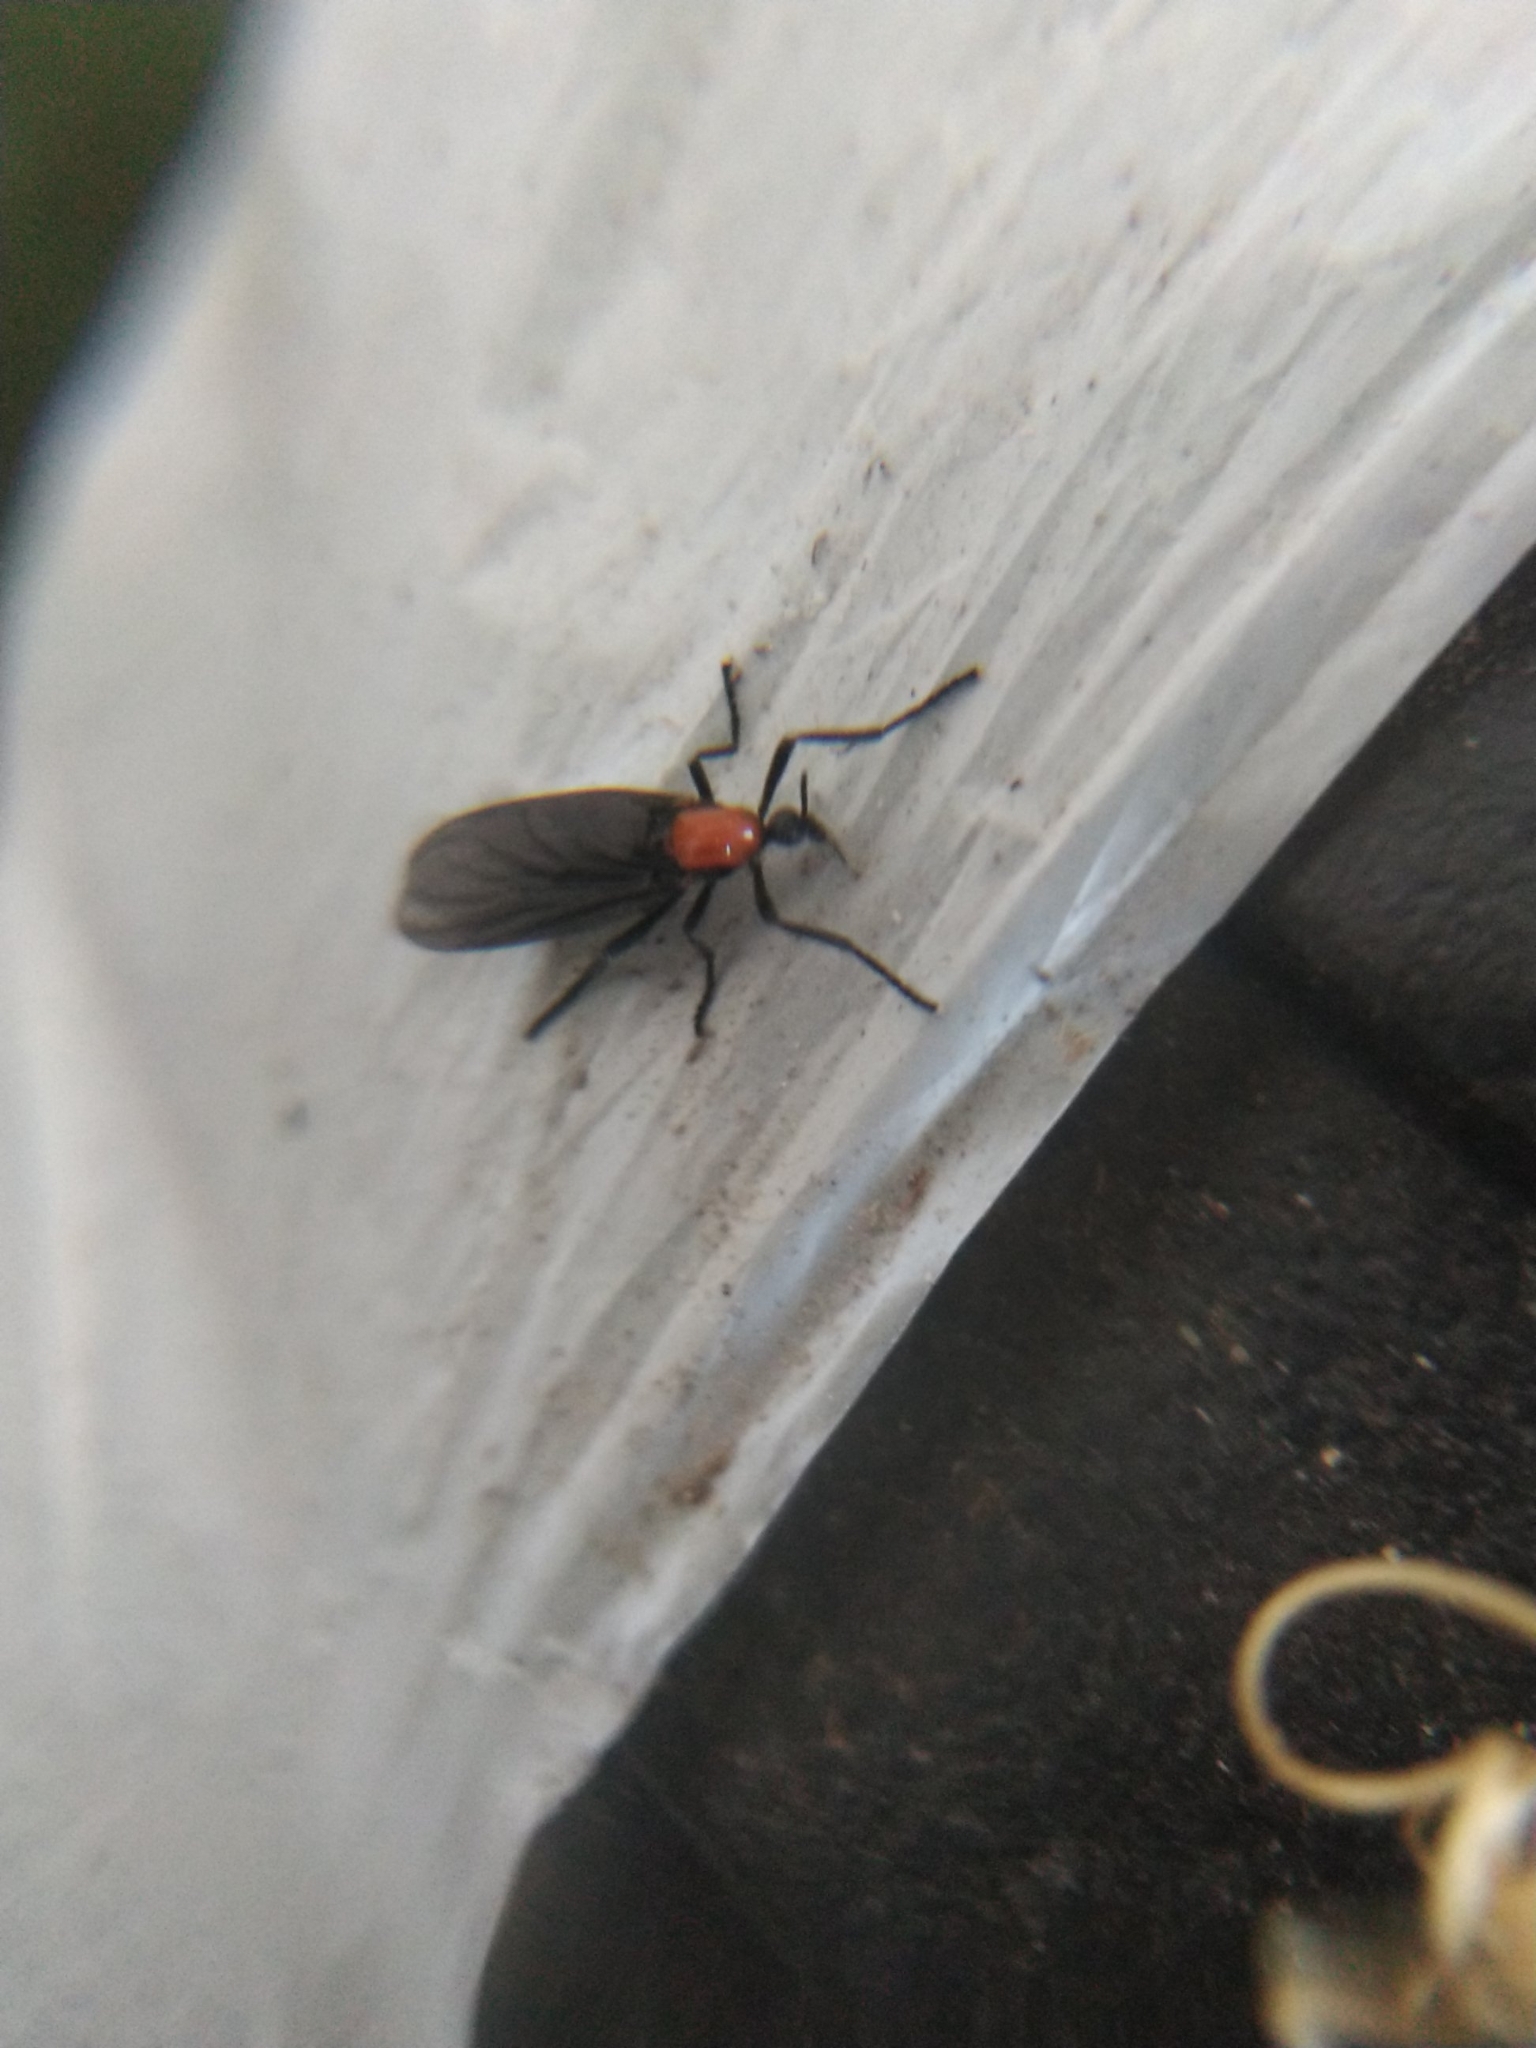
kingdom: Animalia
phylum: Arthropoda
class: Insecta
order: Diptera
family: Bibionidae
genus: Plecia
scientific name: Plecia nearctica
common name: March fly
